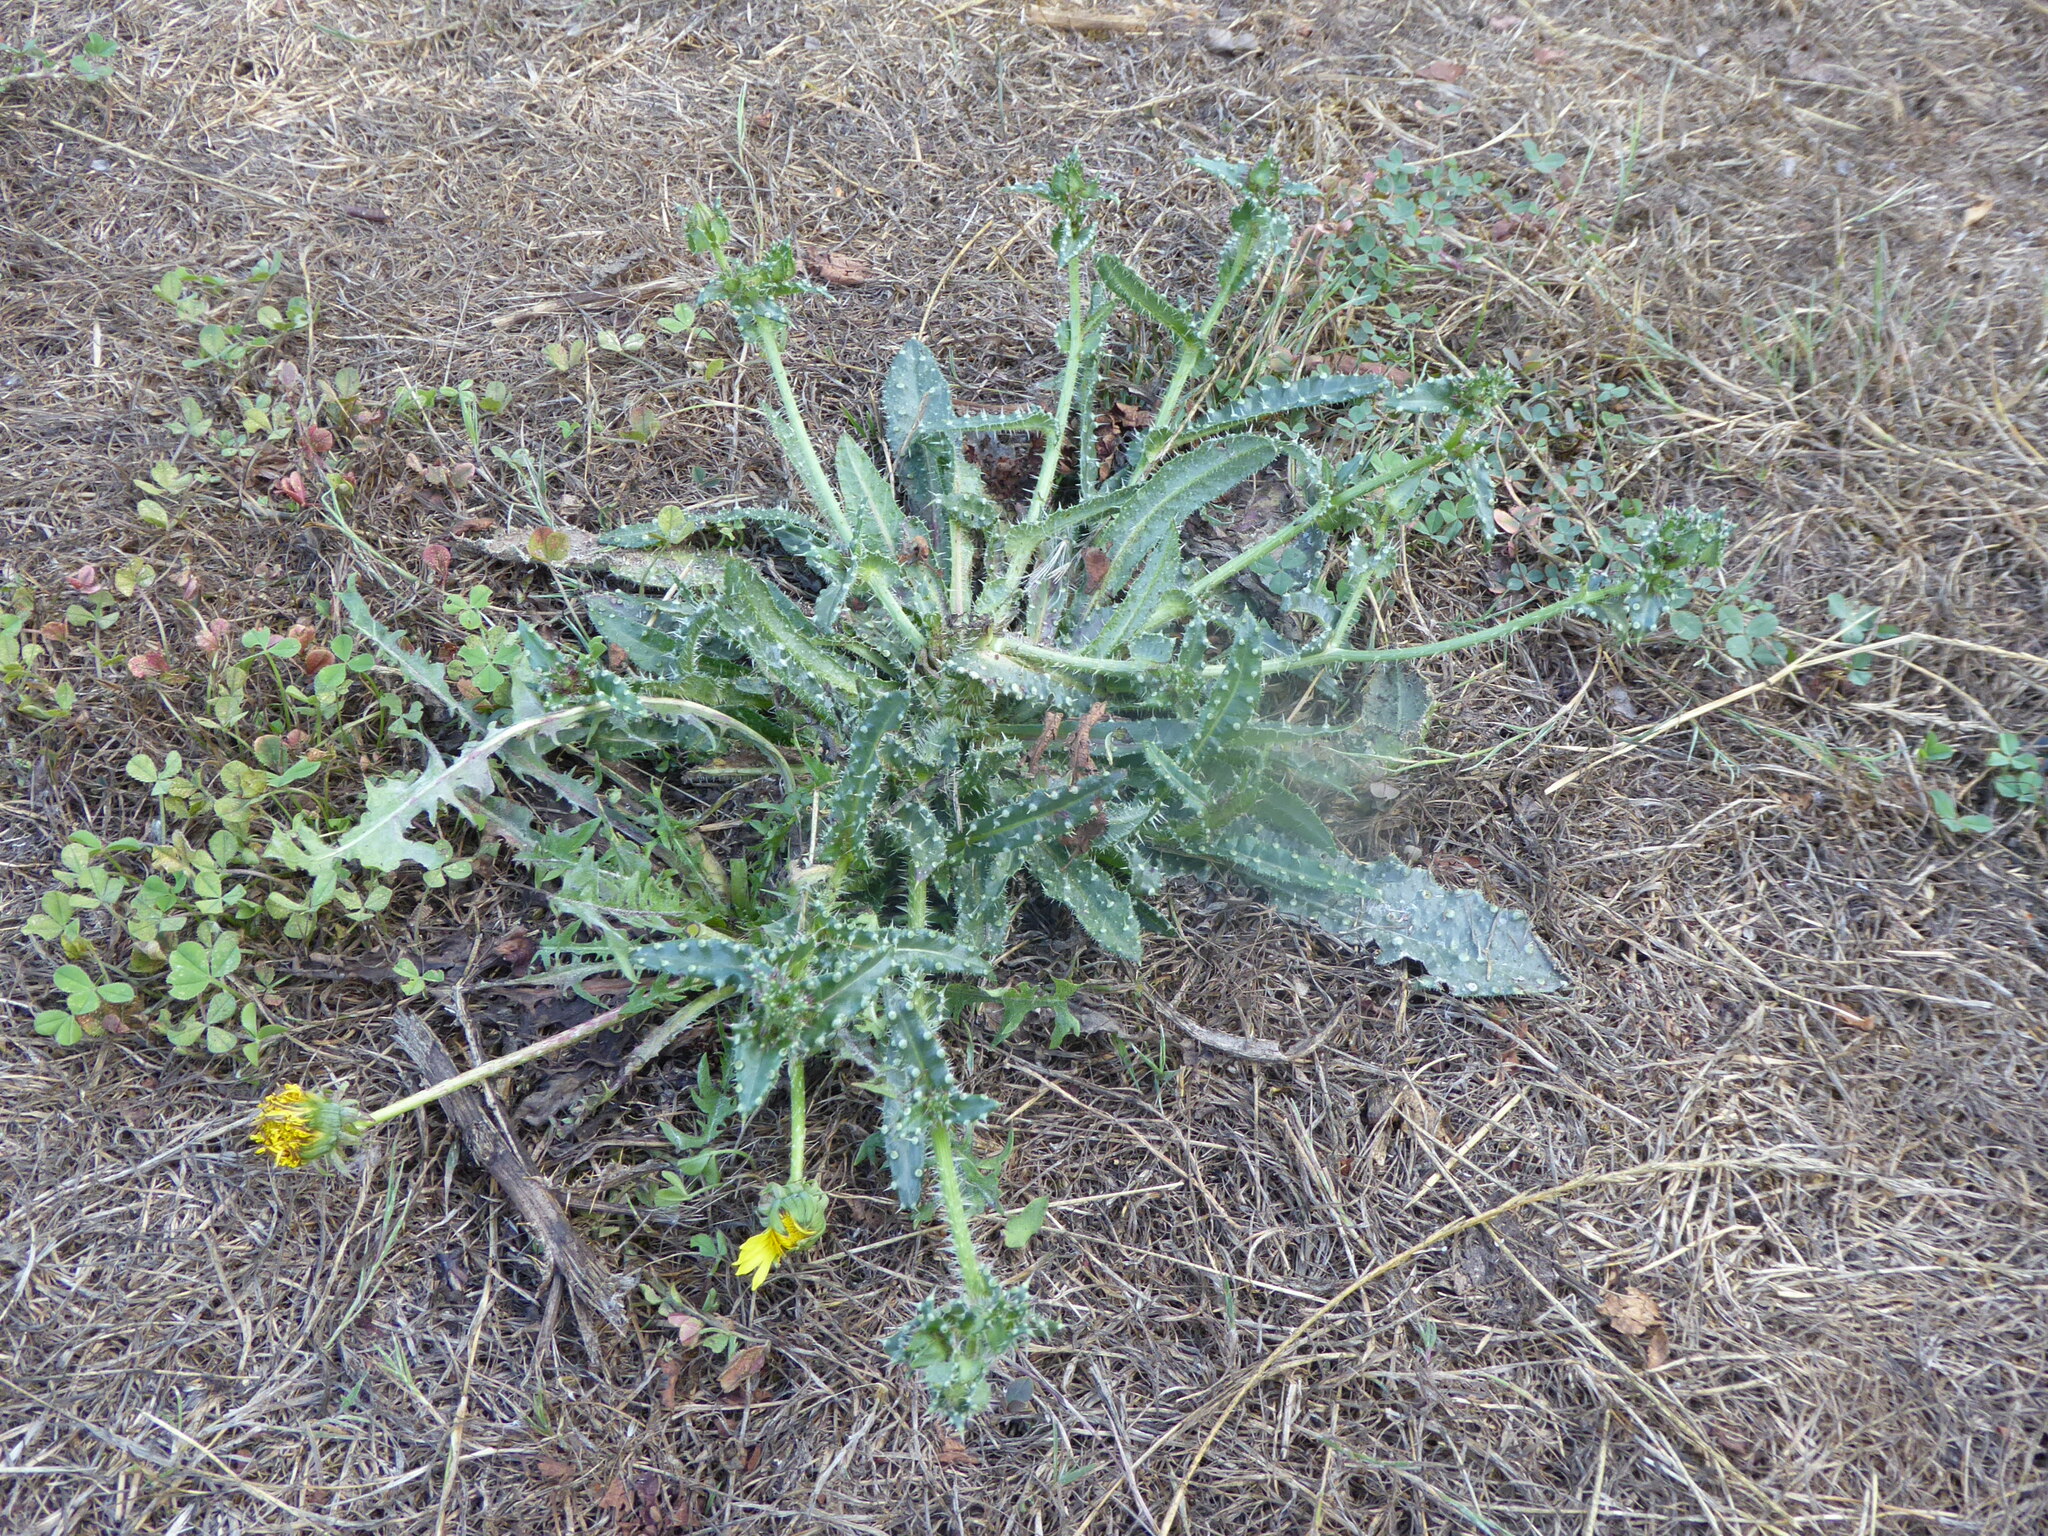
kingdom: Plantae
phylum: Tracheophyta
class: Magnoliopsida
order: Asterales
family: Asteraceae
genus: Helminthotheca
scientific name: Helminthotheca echioides
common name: Ox-tongue
